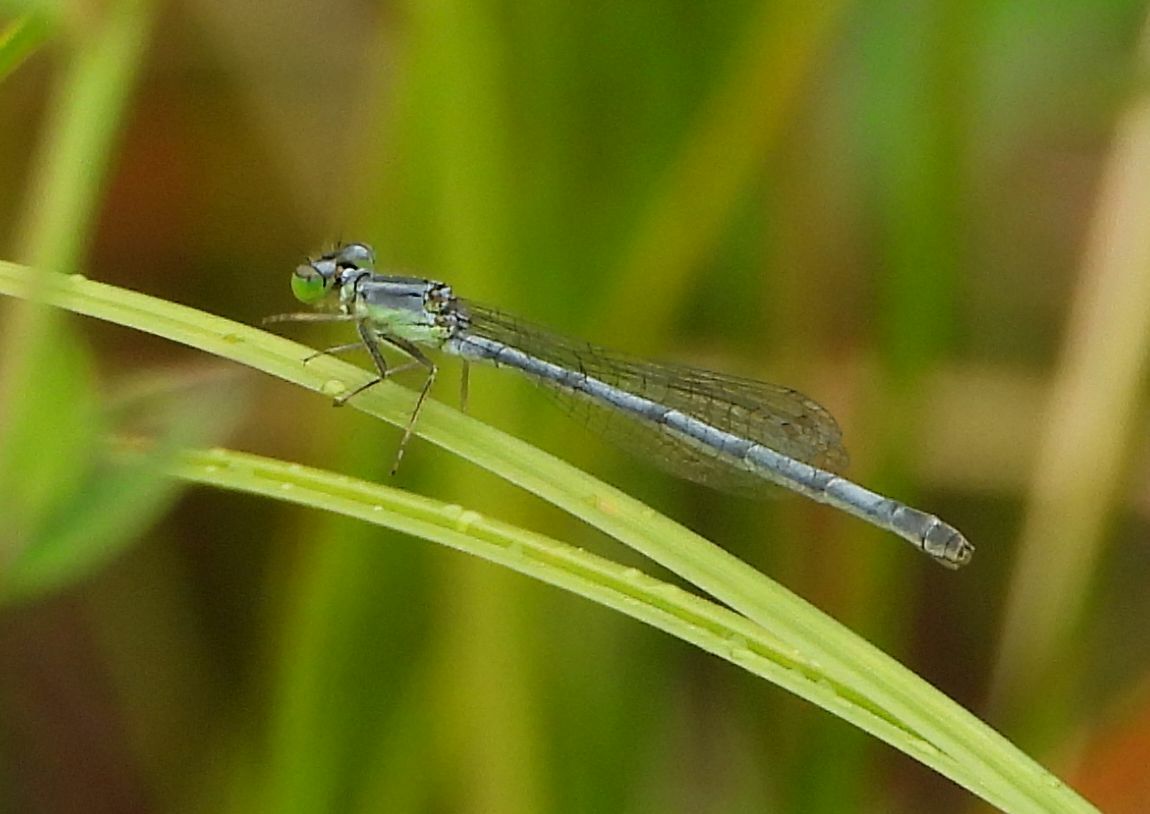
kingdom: Animalia
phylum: Arthropoda
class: Insecta
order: Odonata
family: Coenagrionidae
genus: Ischnura
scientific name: Ischnura verticalis
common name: Eastern forktail
